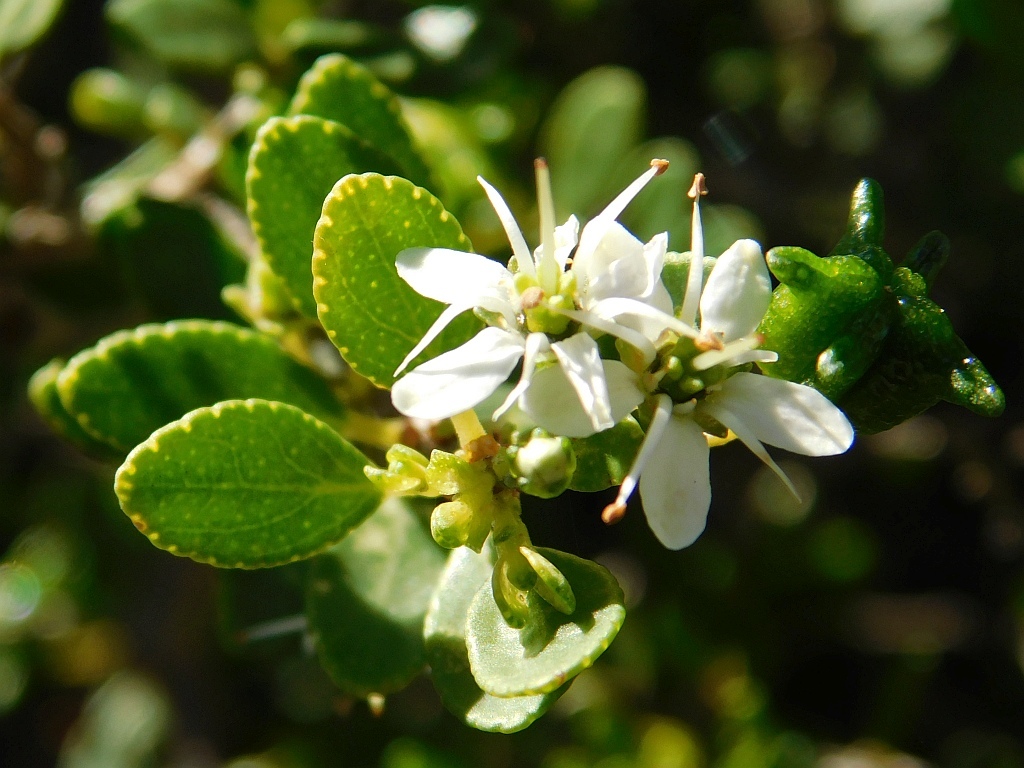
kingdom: Plantae
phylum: Tracheophyta
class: Magnoliopsida
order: Sapindales
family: Rutaceae
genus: Agathosma
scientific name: Agathosma ovata
